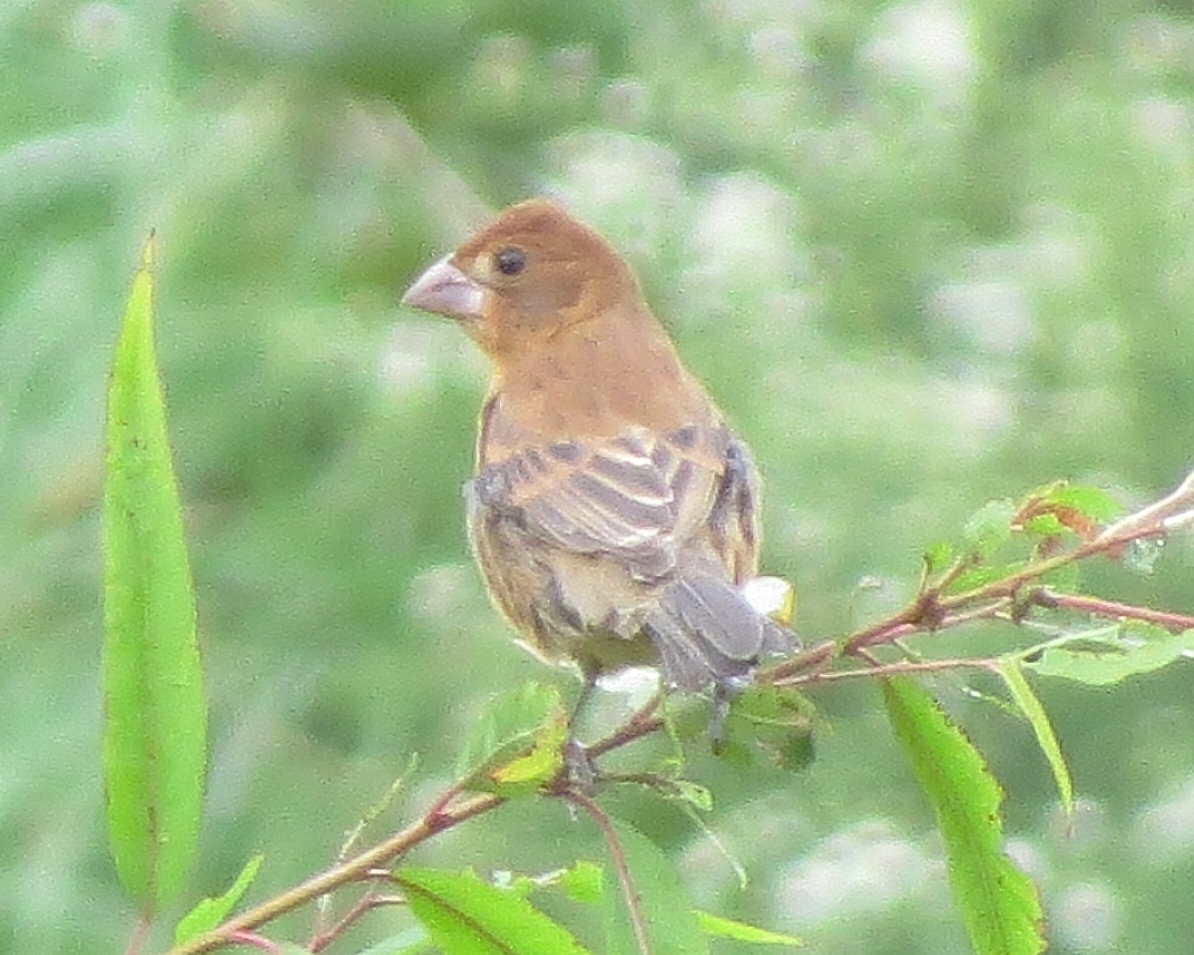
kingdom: Animalia
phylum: Chordata
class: Aves
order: Passeriformes
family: Cardinalidae
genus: Passerina
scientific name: Passerina caerulea
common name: Blue grosbeak
